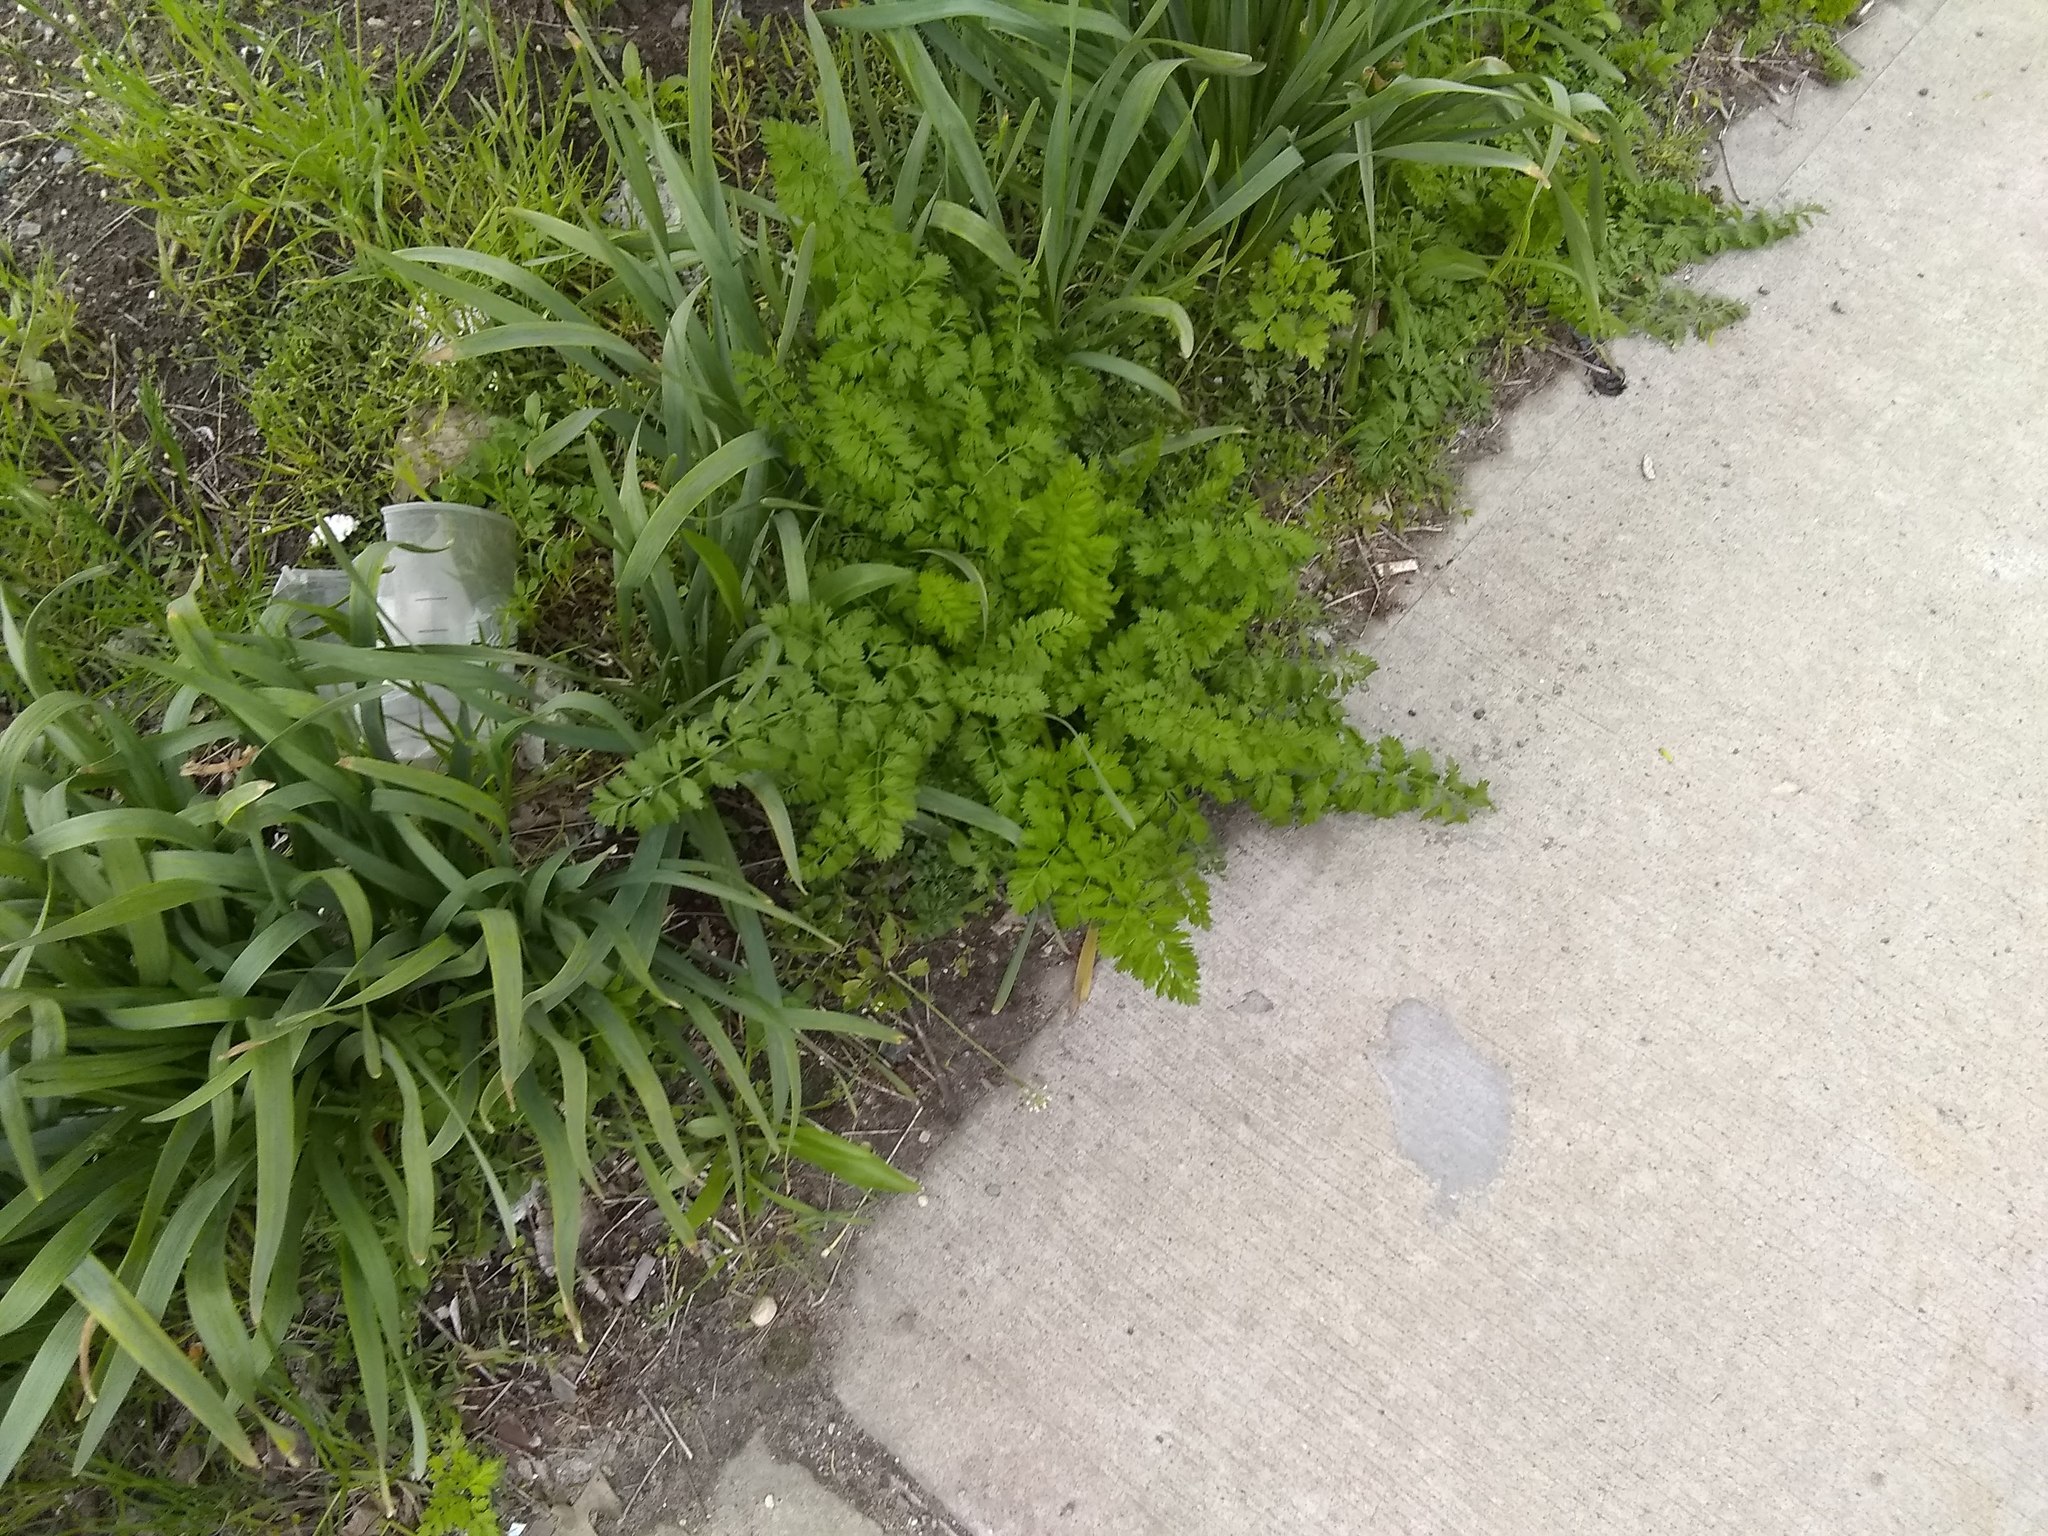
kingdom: Plantae
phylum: Tracheophyta
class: Magnoliopsida
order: Apiales
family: Apiaceae
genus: Daucus
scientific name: Daucus carota
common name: Wild carrot
